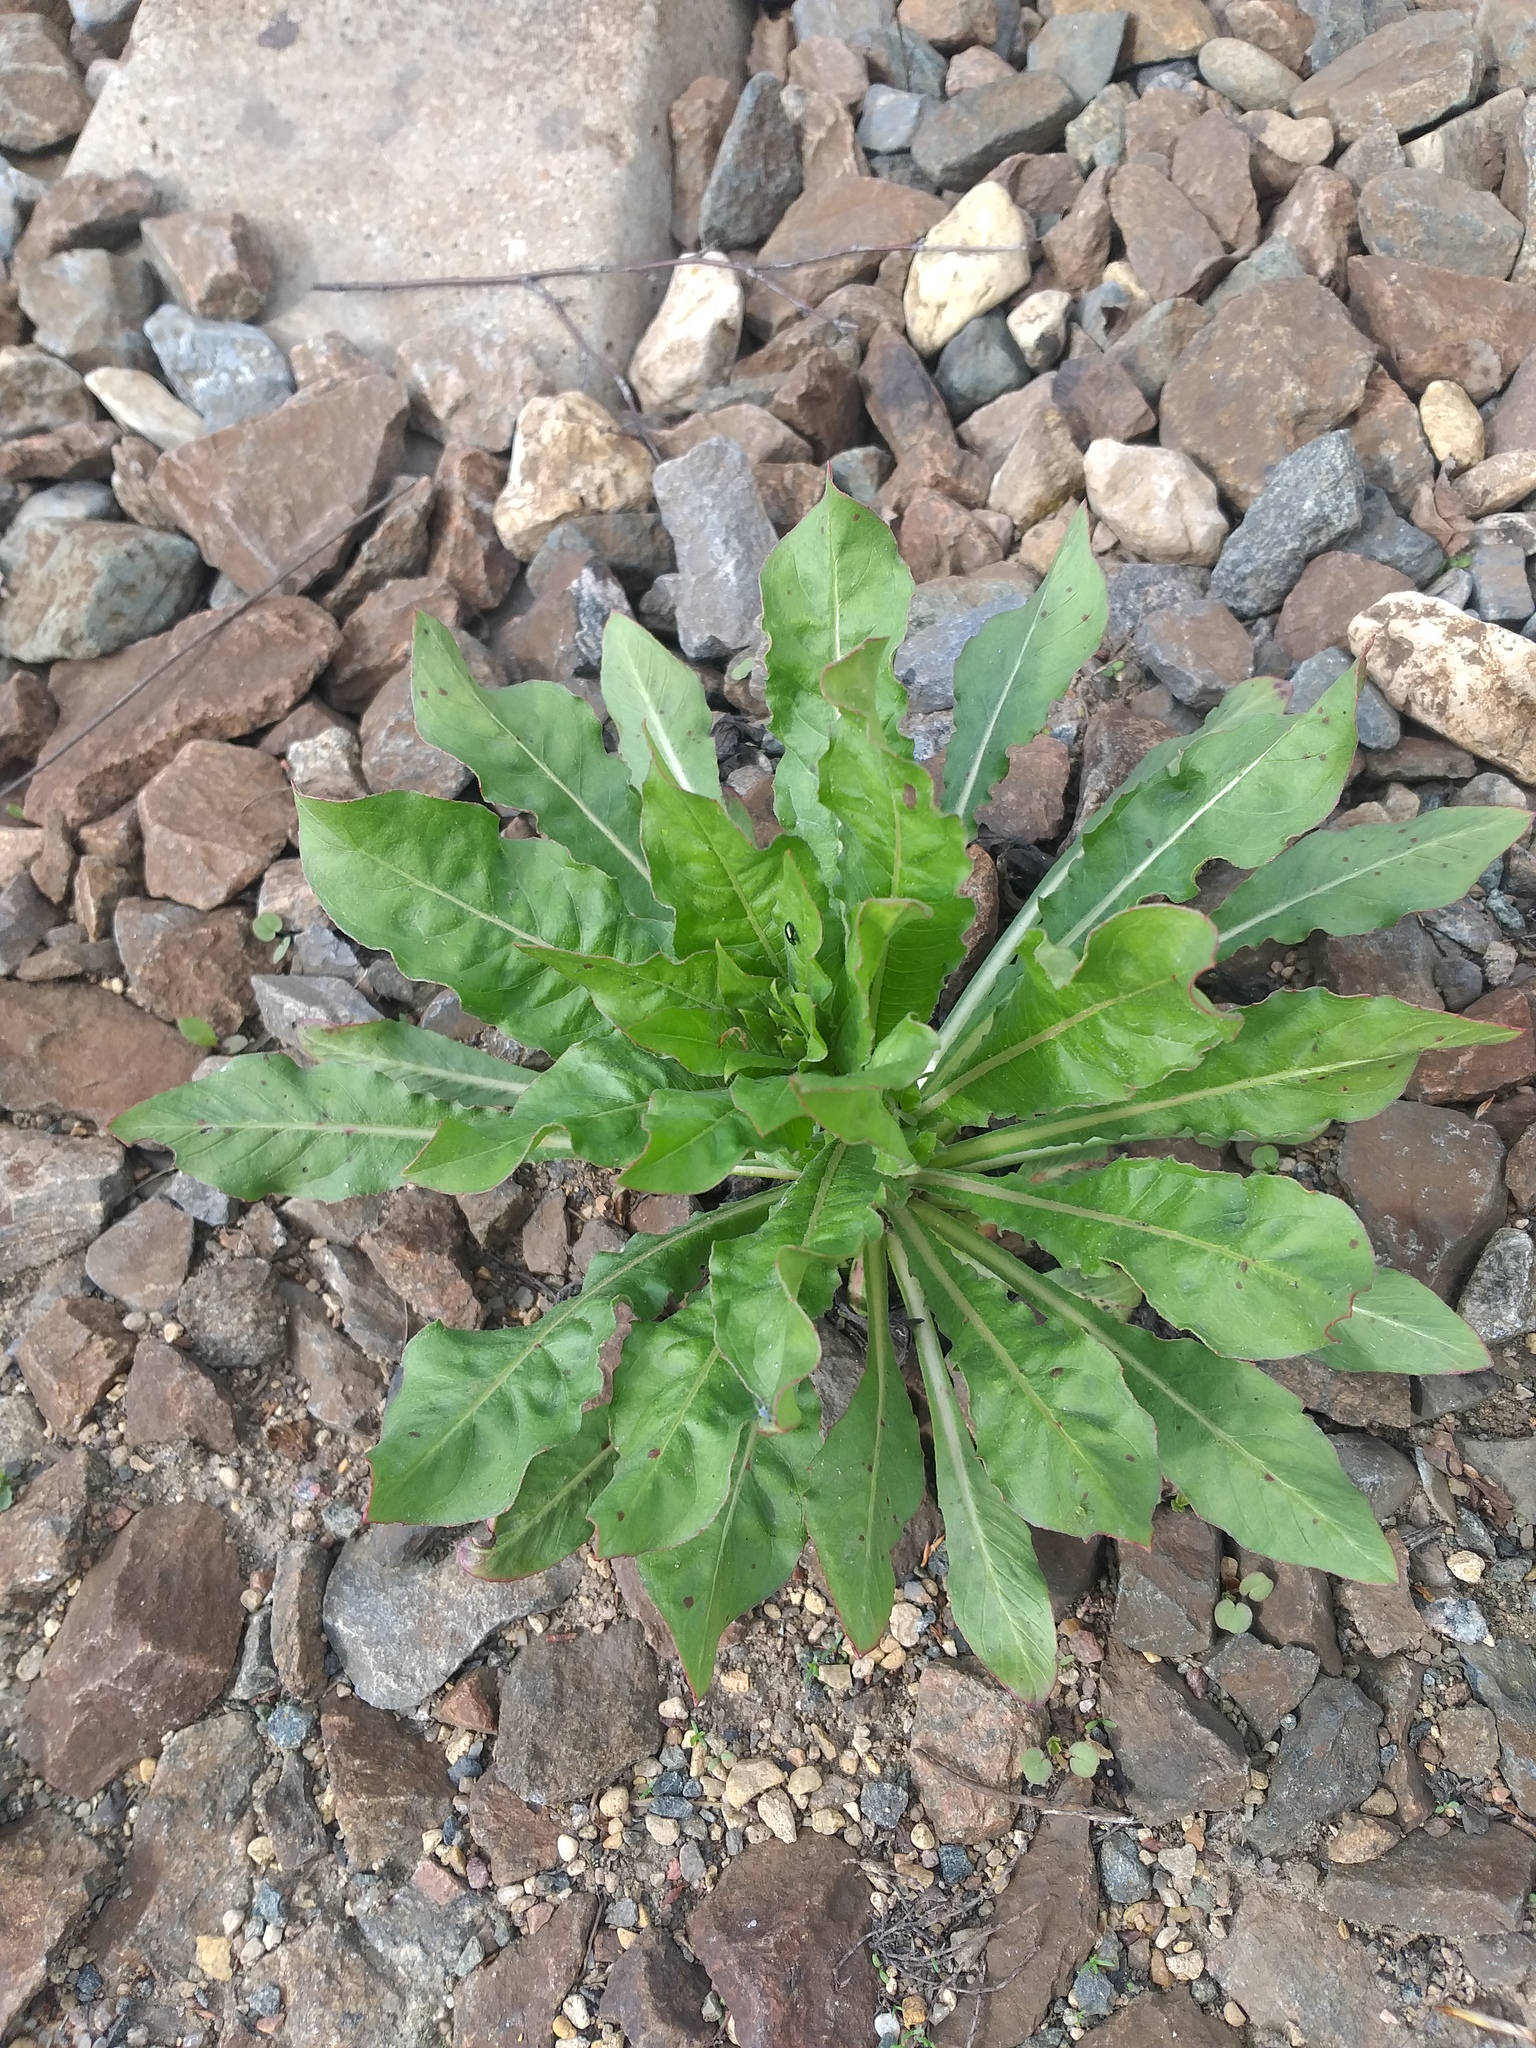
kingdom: Plantae
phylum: Tracheophyta
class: Magnoliopsida
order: Myrtales
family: Onagraceae
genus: Oenothera
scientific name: Oenothera
